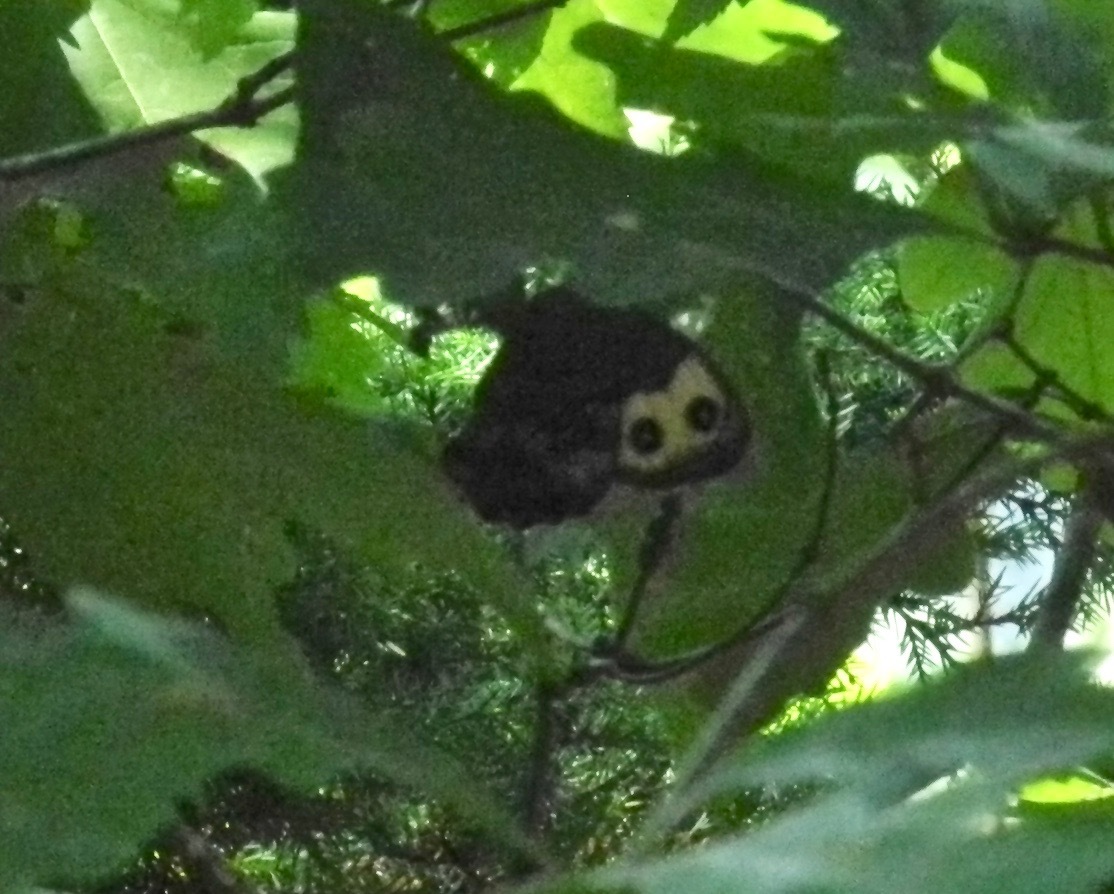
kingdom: Animalia
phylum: Arthropoda
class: Insecta
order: Lepidoptera
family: Nymphalidae
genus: Cercyonis
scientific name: Cercyonis pegala
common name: Common wood-nymph
